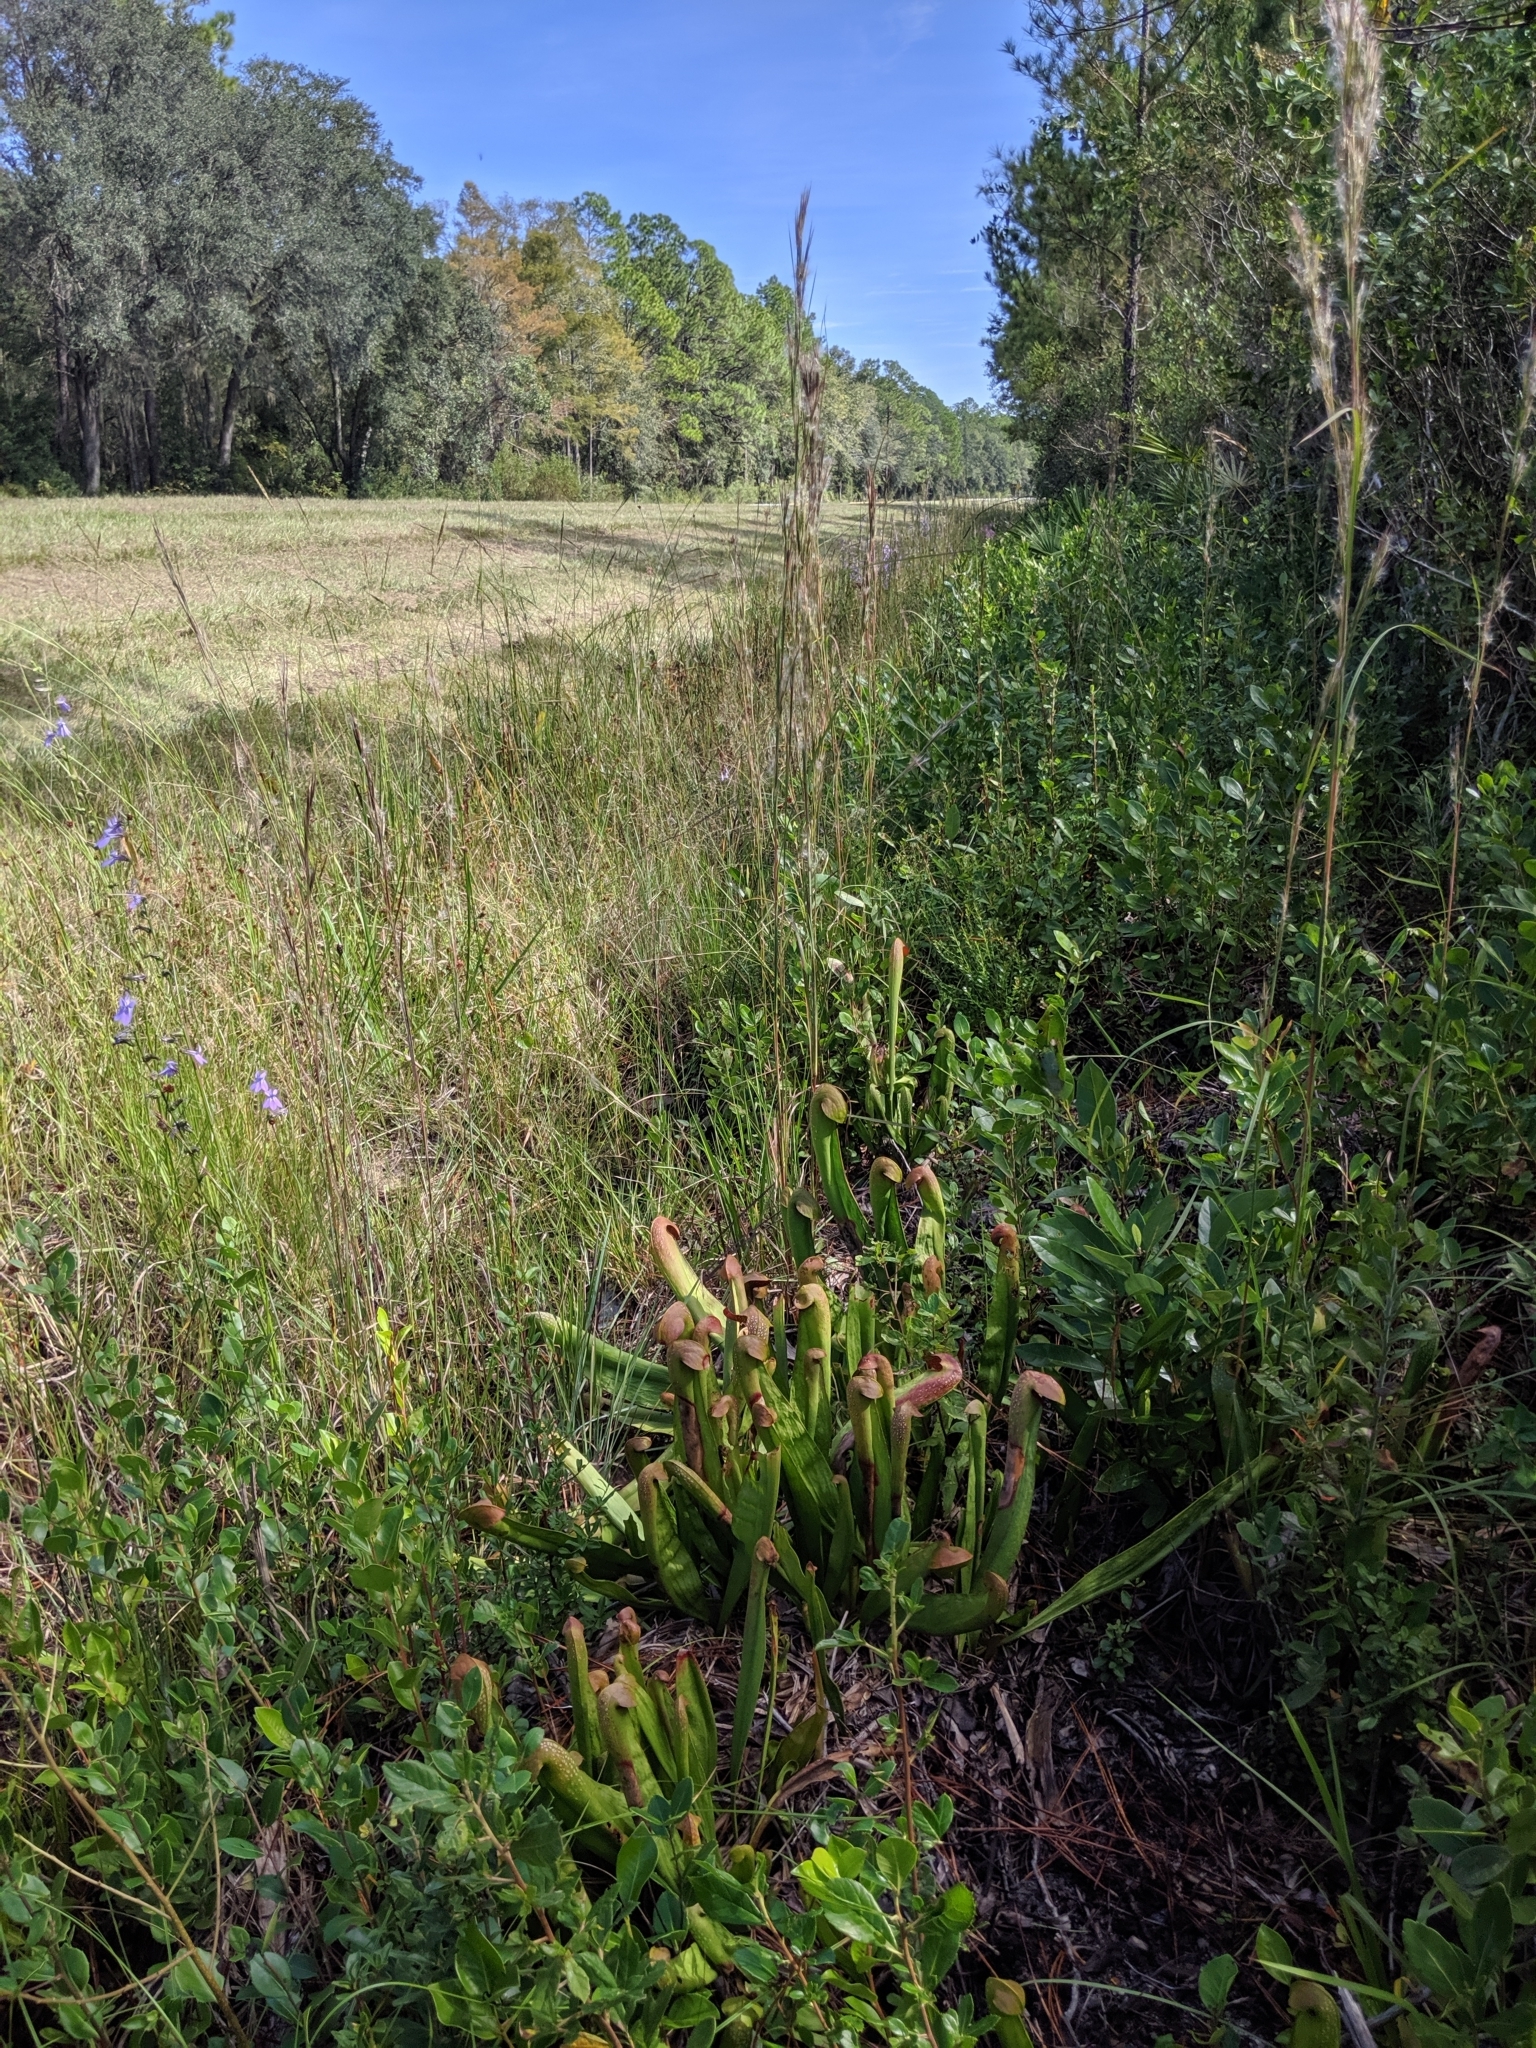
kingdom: Plantae
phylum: Tracheophyta
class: Magnoliopsida
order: Ericales
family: Sarraceniaceae
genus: Sarracenia
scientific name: Sarracenia minor
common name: Rainhat-trumpet
